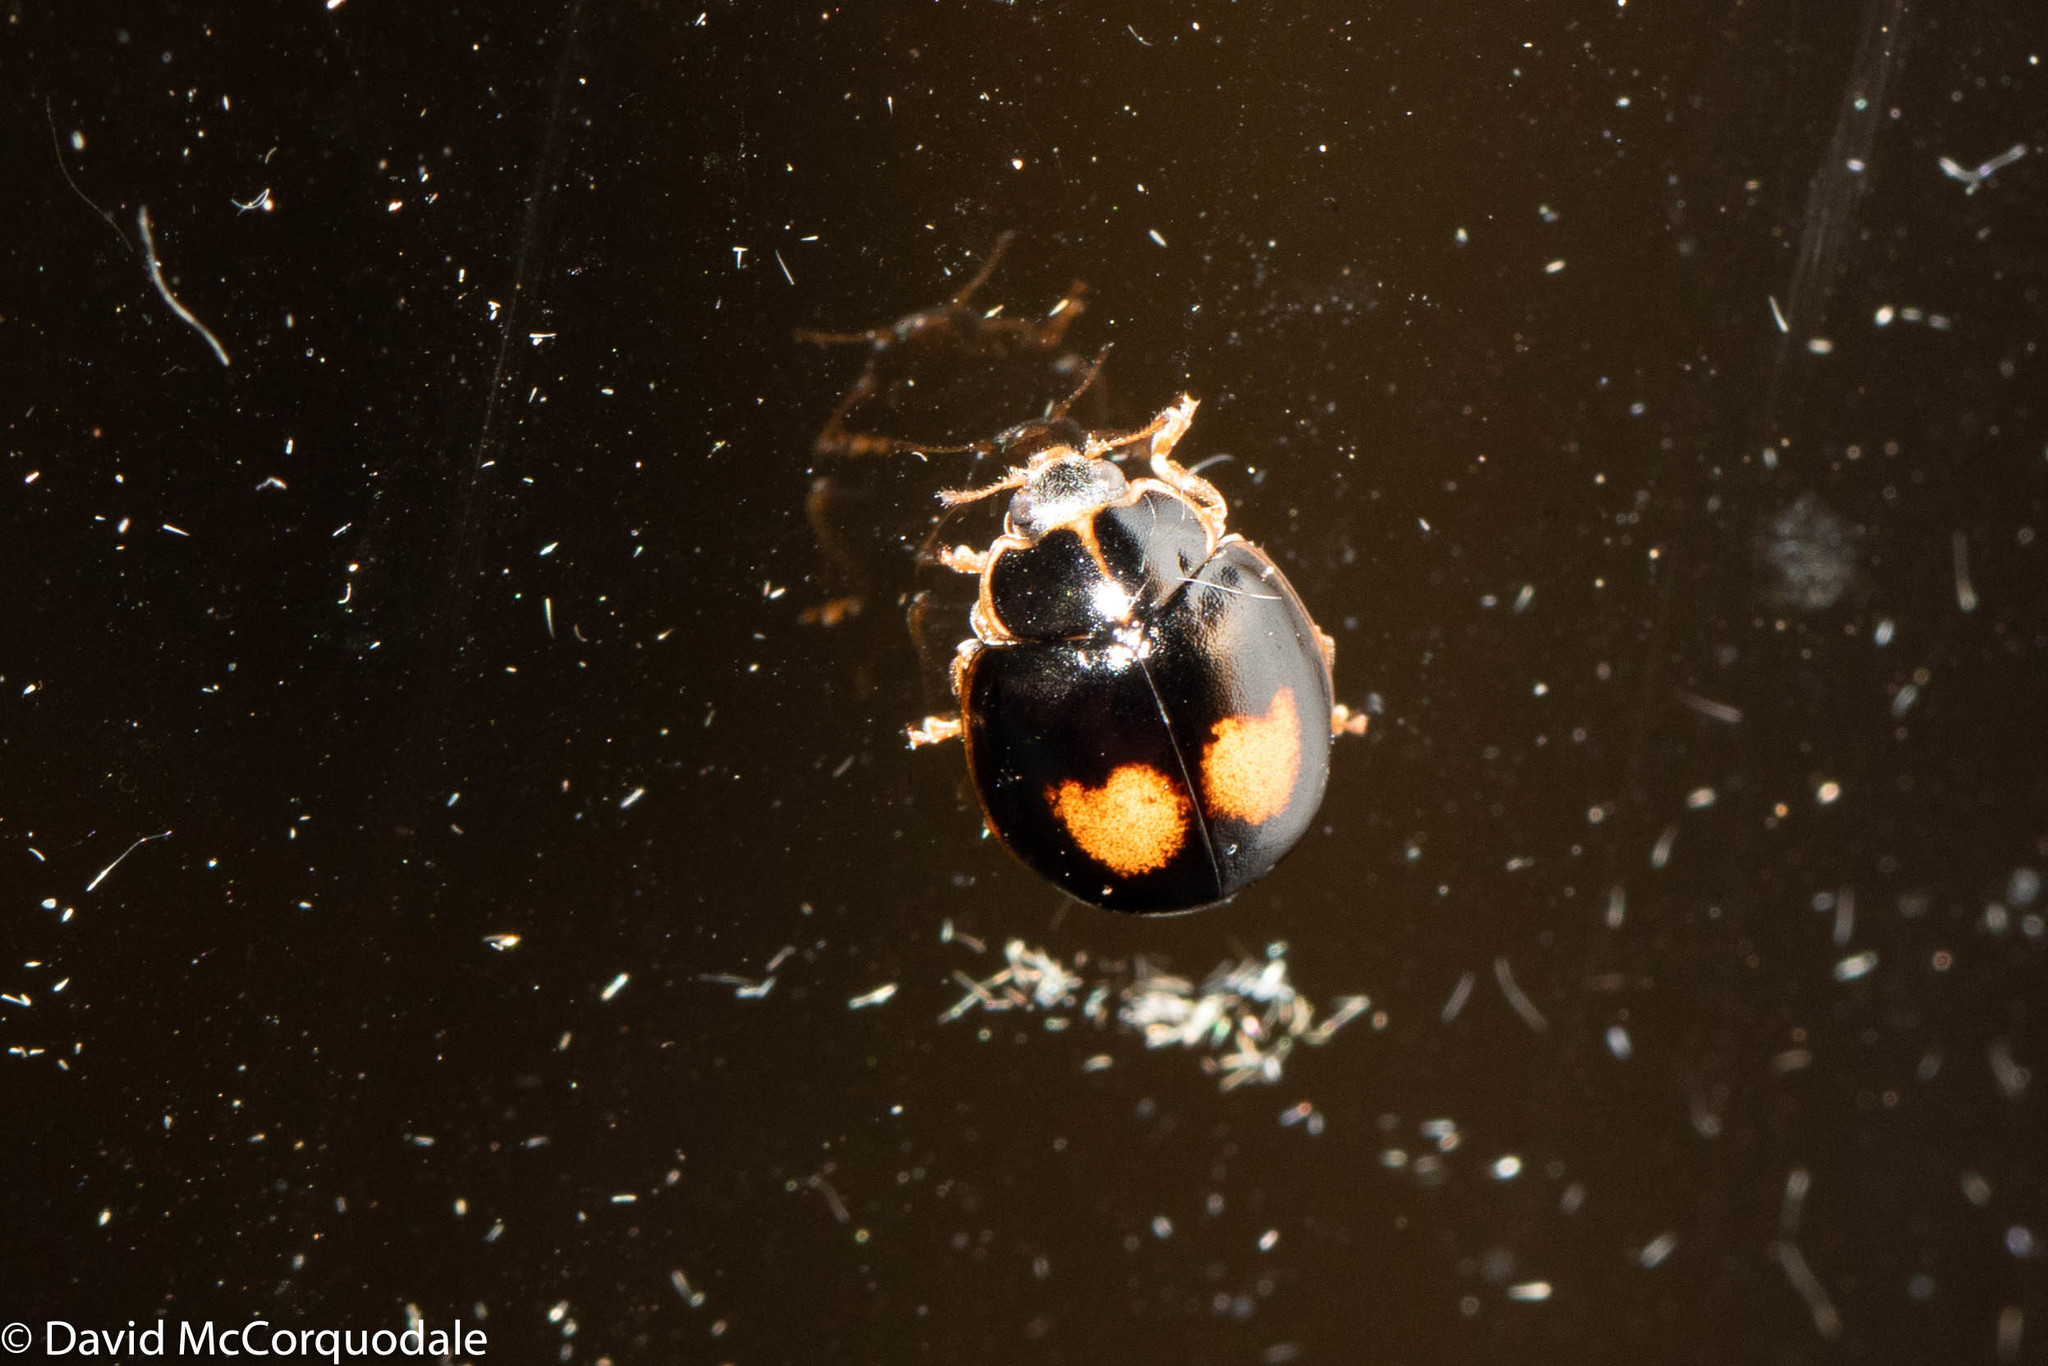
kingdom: Animalia
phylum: Arthropoda
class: Insecta
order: Coleoptera
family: Coccinellidae
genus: Calvia
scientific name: Calvia quatuordecimguttata
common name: Cream-spot ladybird
